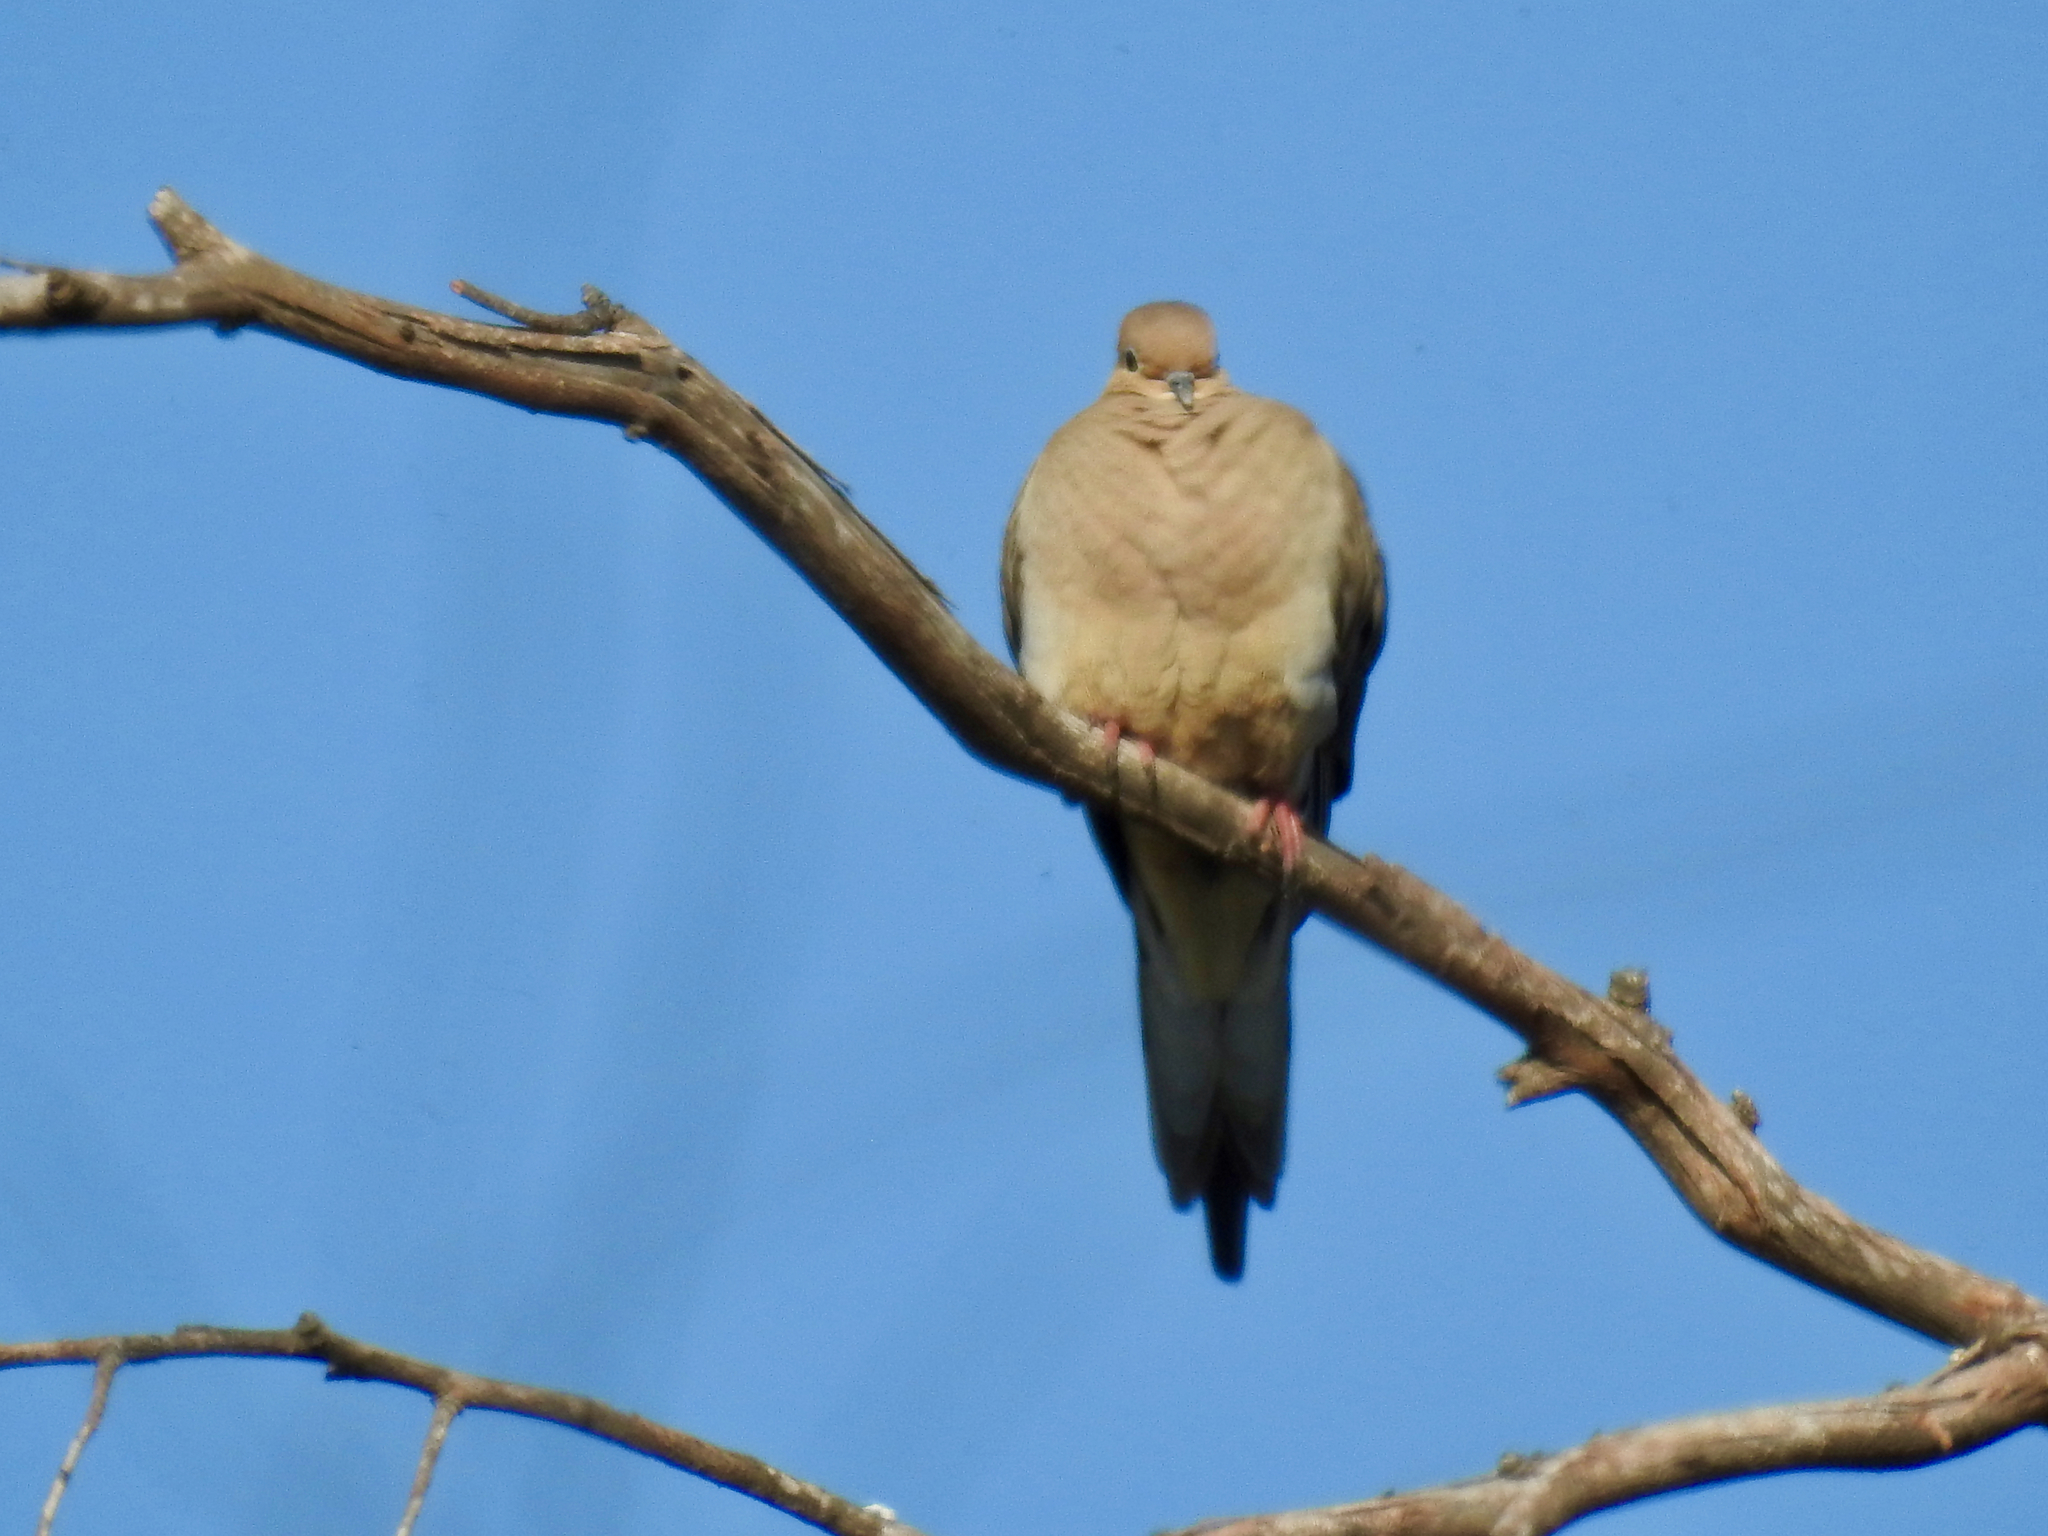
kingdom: Animalia
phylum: Chordata
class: Aves
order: Columbiformes
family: Columbidae
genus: Zenaida
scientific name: Zenaida macroura
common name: Mourning dove
